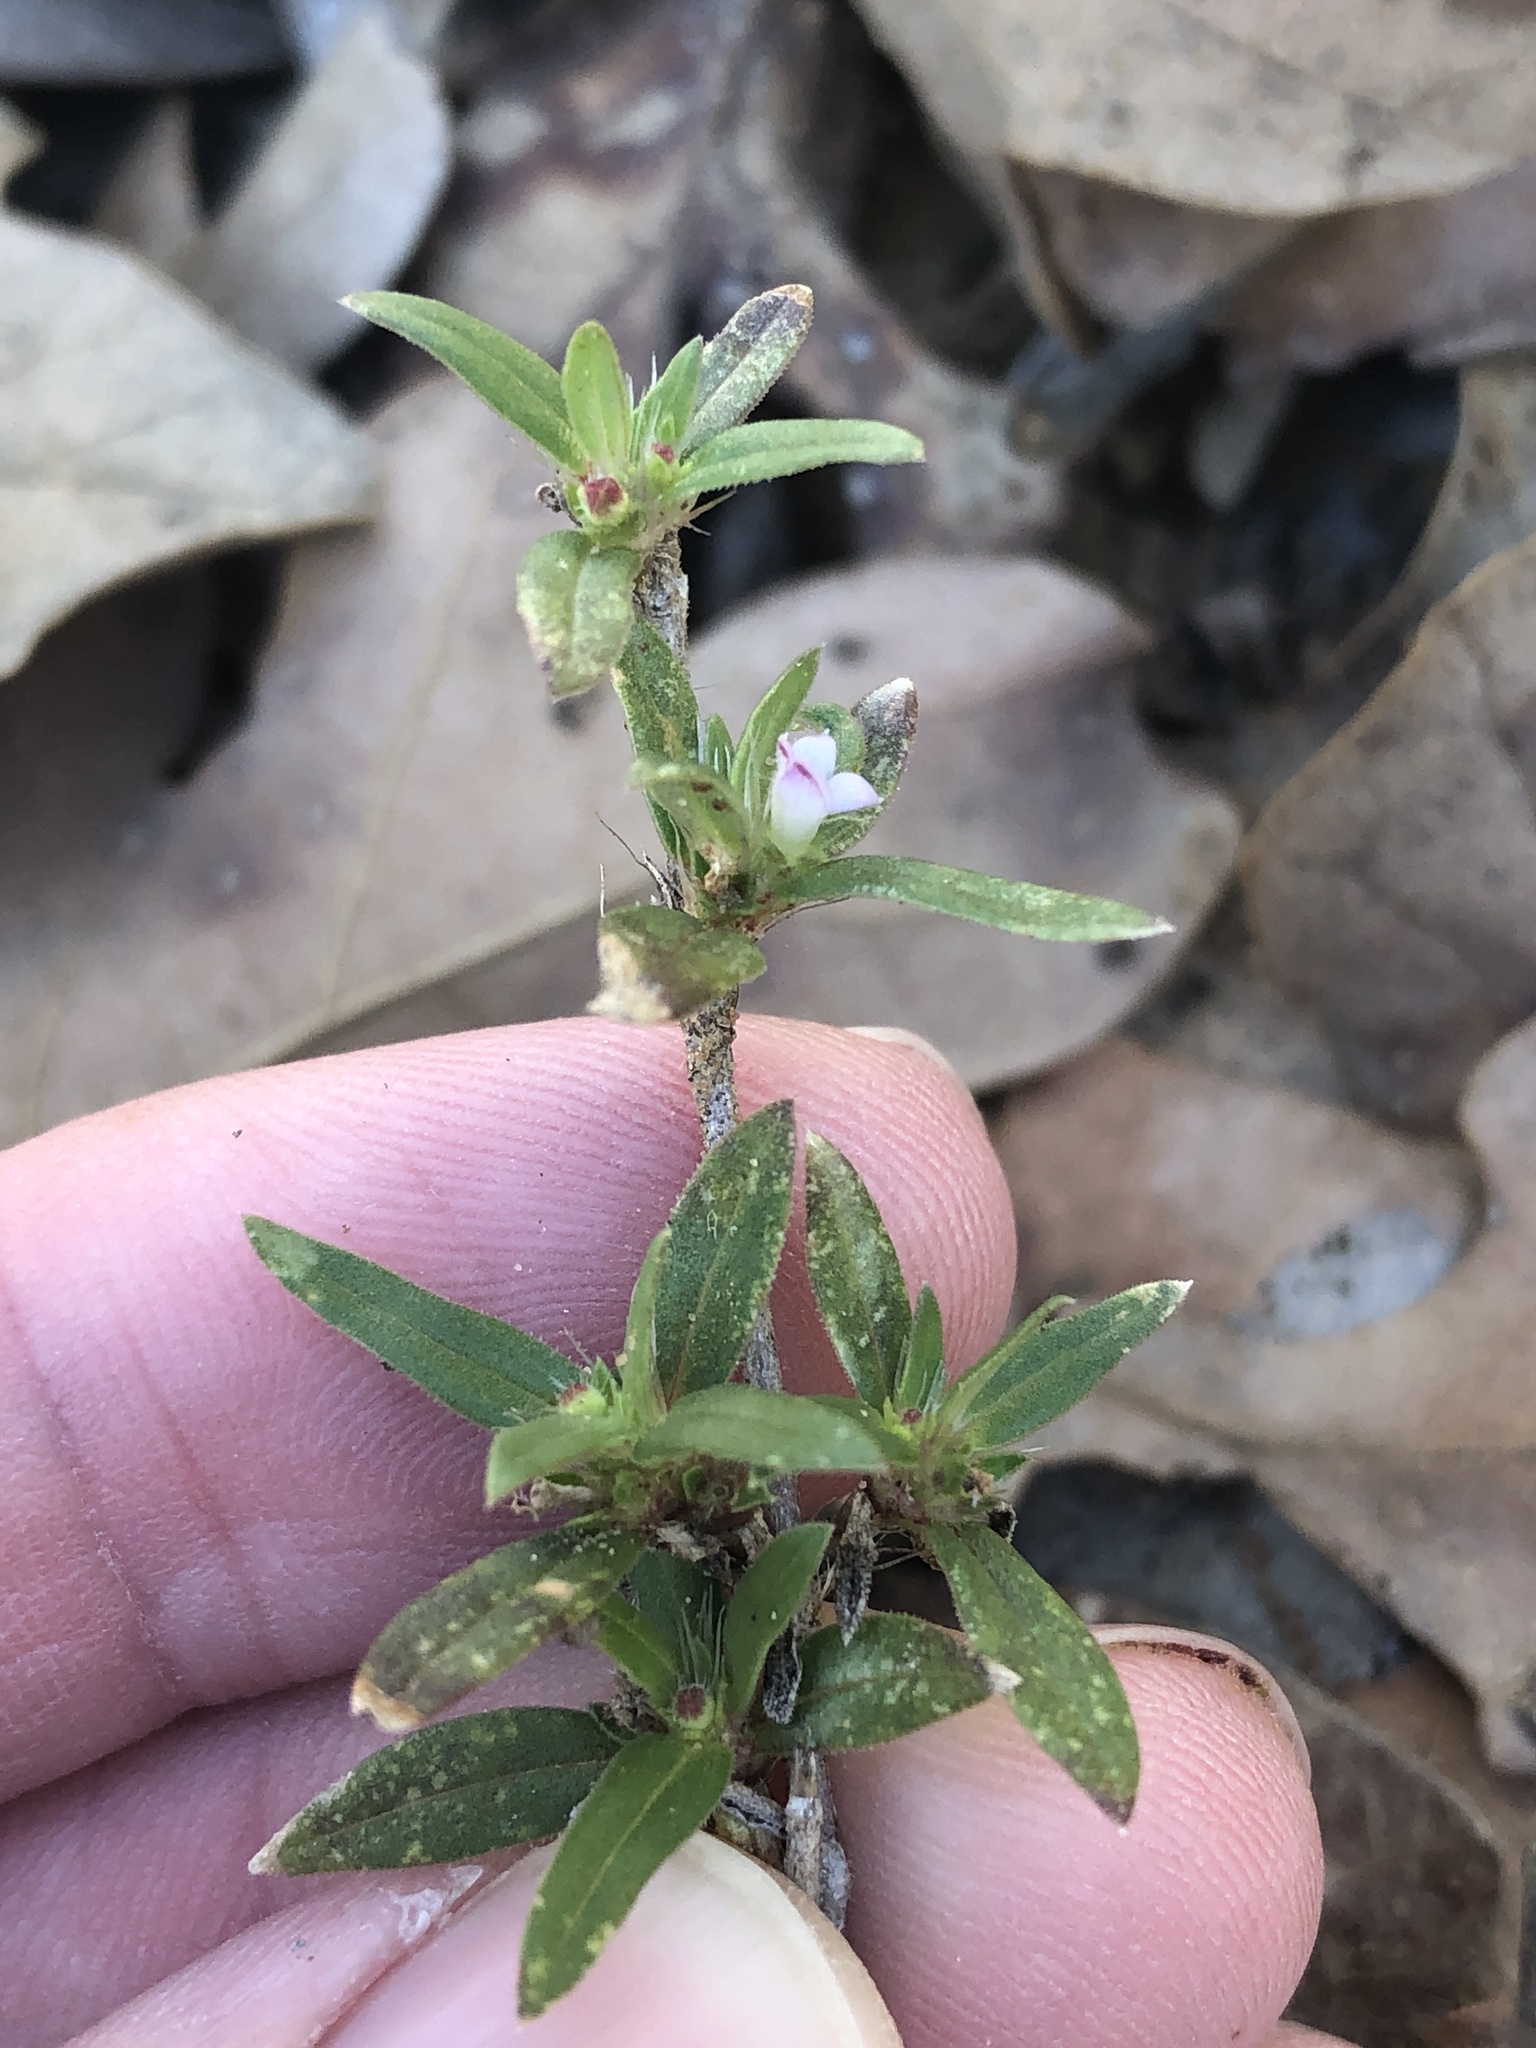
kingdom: Plantae
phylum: Tracheophyta
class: Magnoliopsida
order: Gentianales
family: Rubiaceae
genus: Hexasepalum
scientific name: Hexasepalum teres
